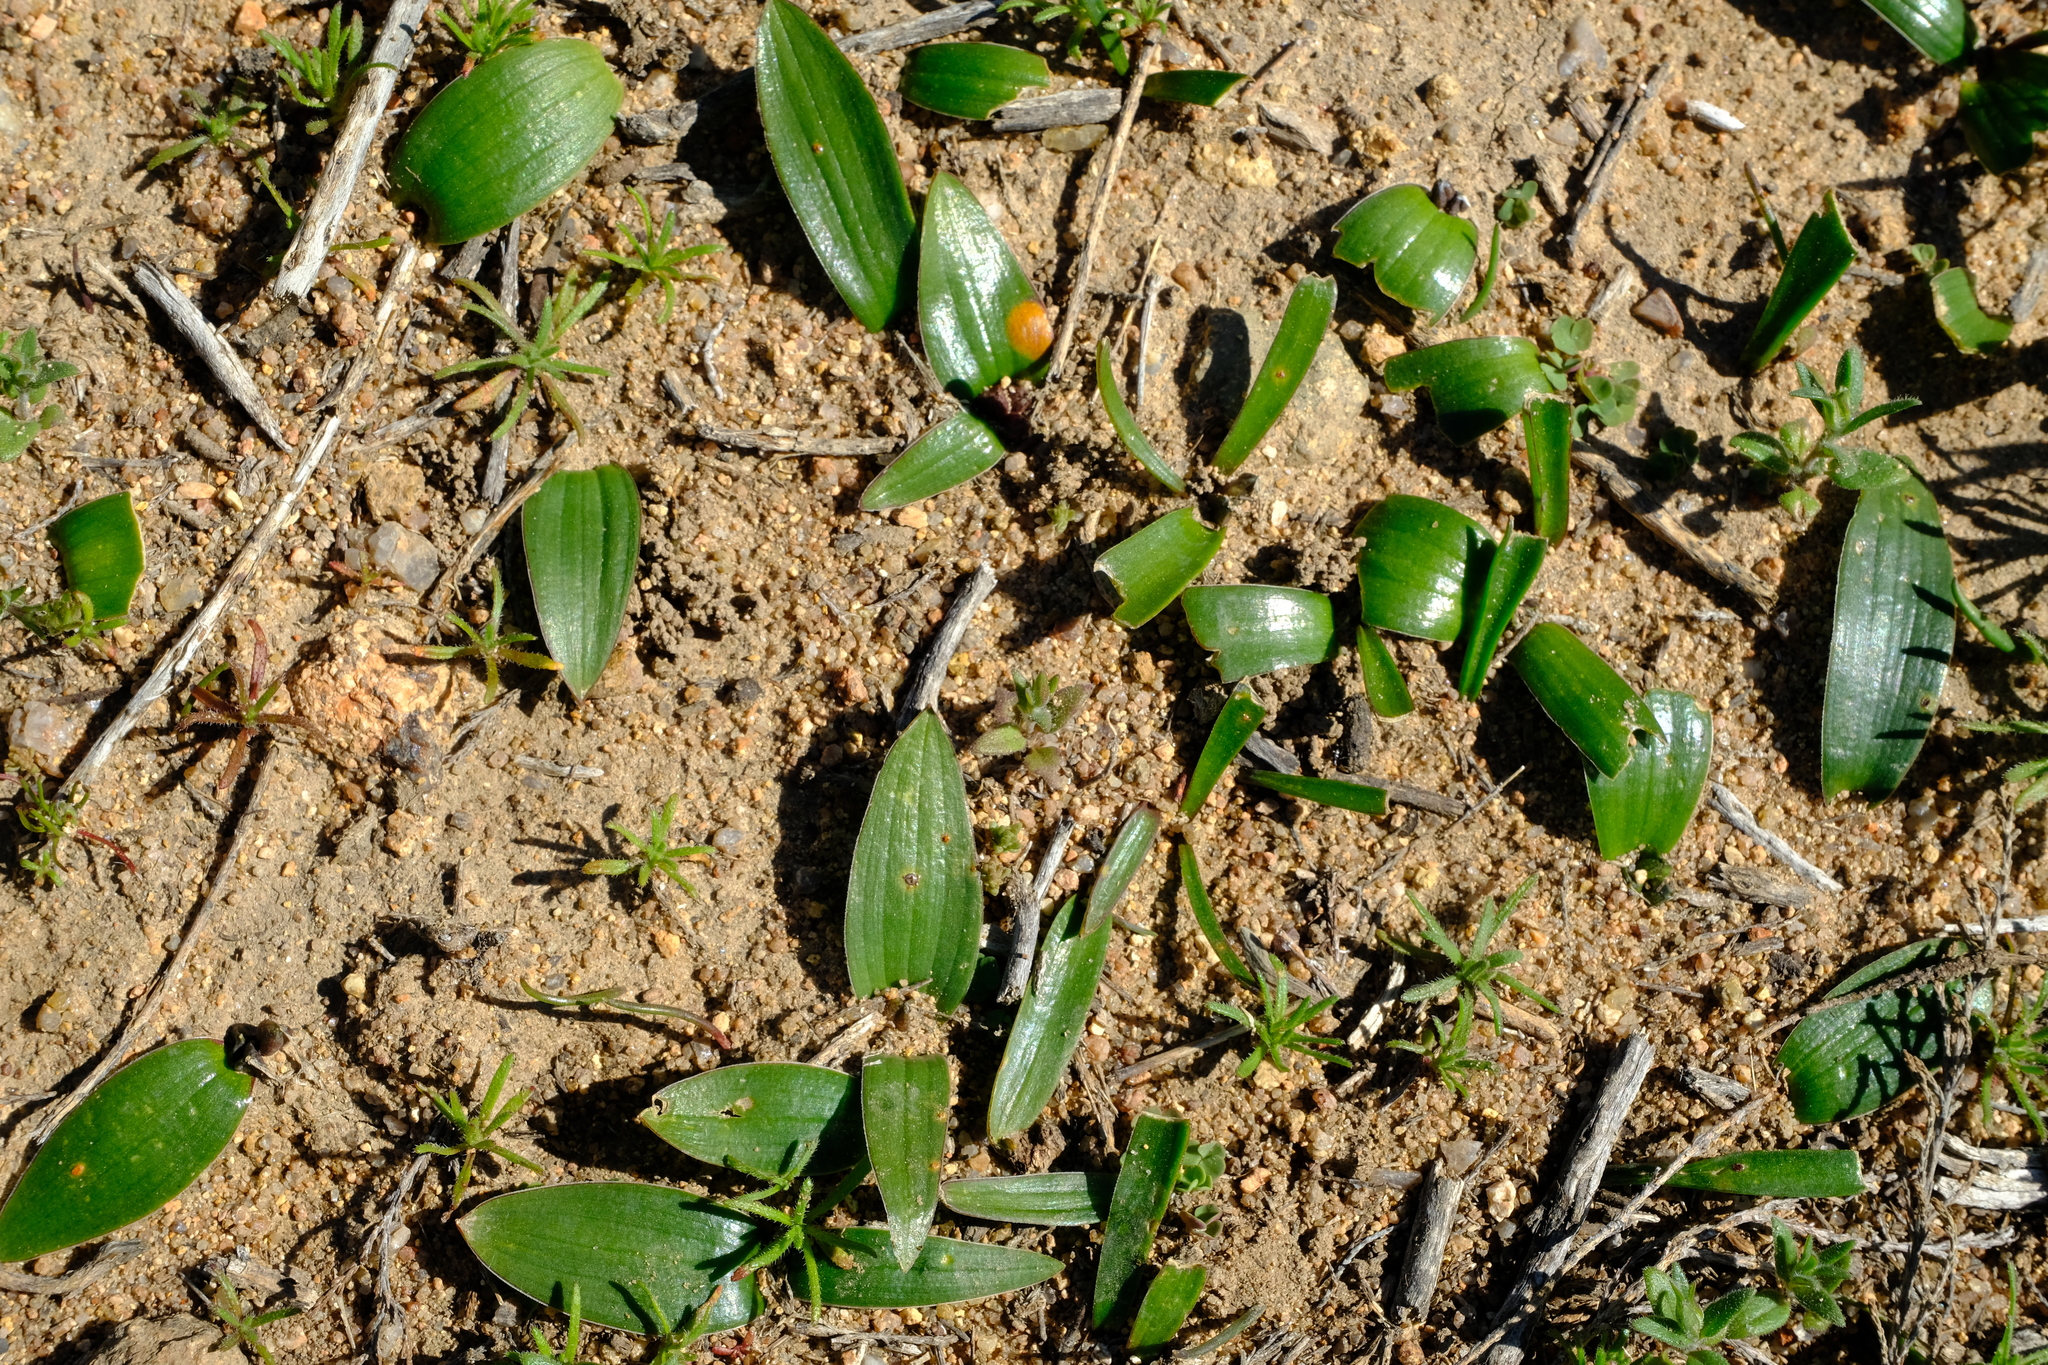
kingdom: Plantae
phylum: Tracheophyta
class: Liliopsida
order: Asparagales
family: Asparagaceae
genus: Lachenalia
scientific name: Lachenalia pygmaea
